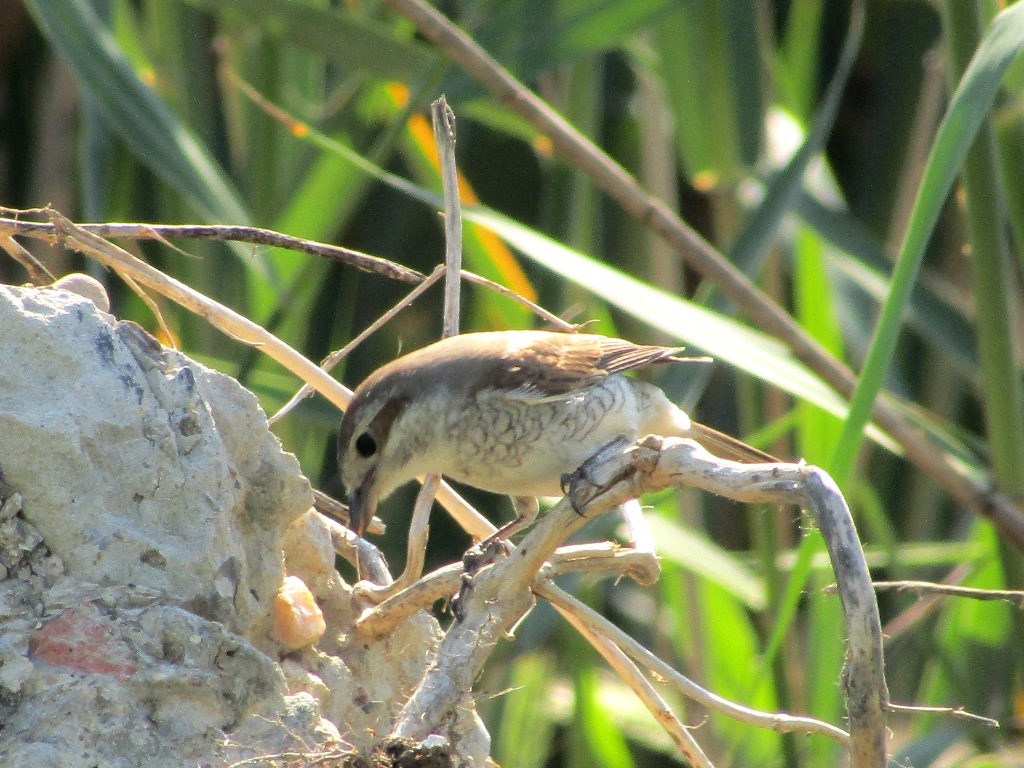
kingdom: Animalia
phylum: Chordata
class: Aves
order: Passeriformes
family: Laniidae
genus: Lanius
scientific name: Lanius collurio
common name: Red-backed shrike
